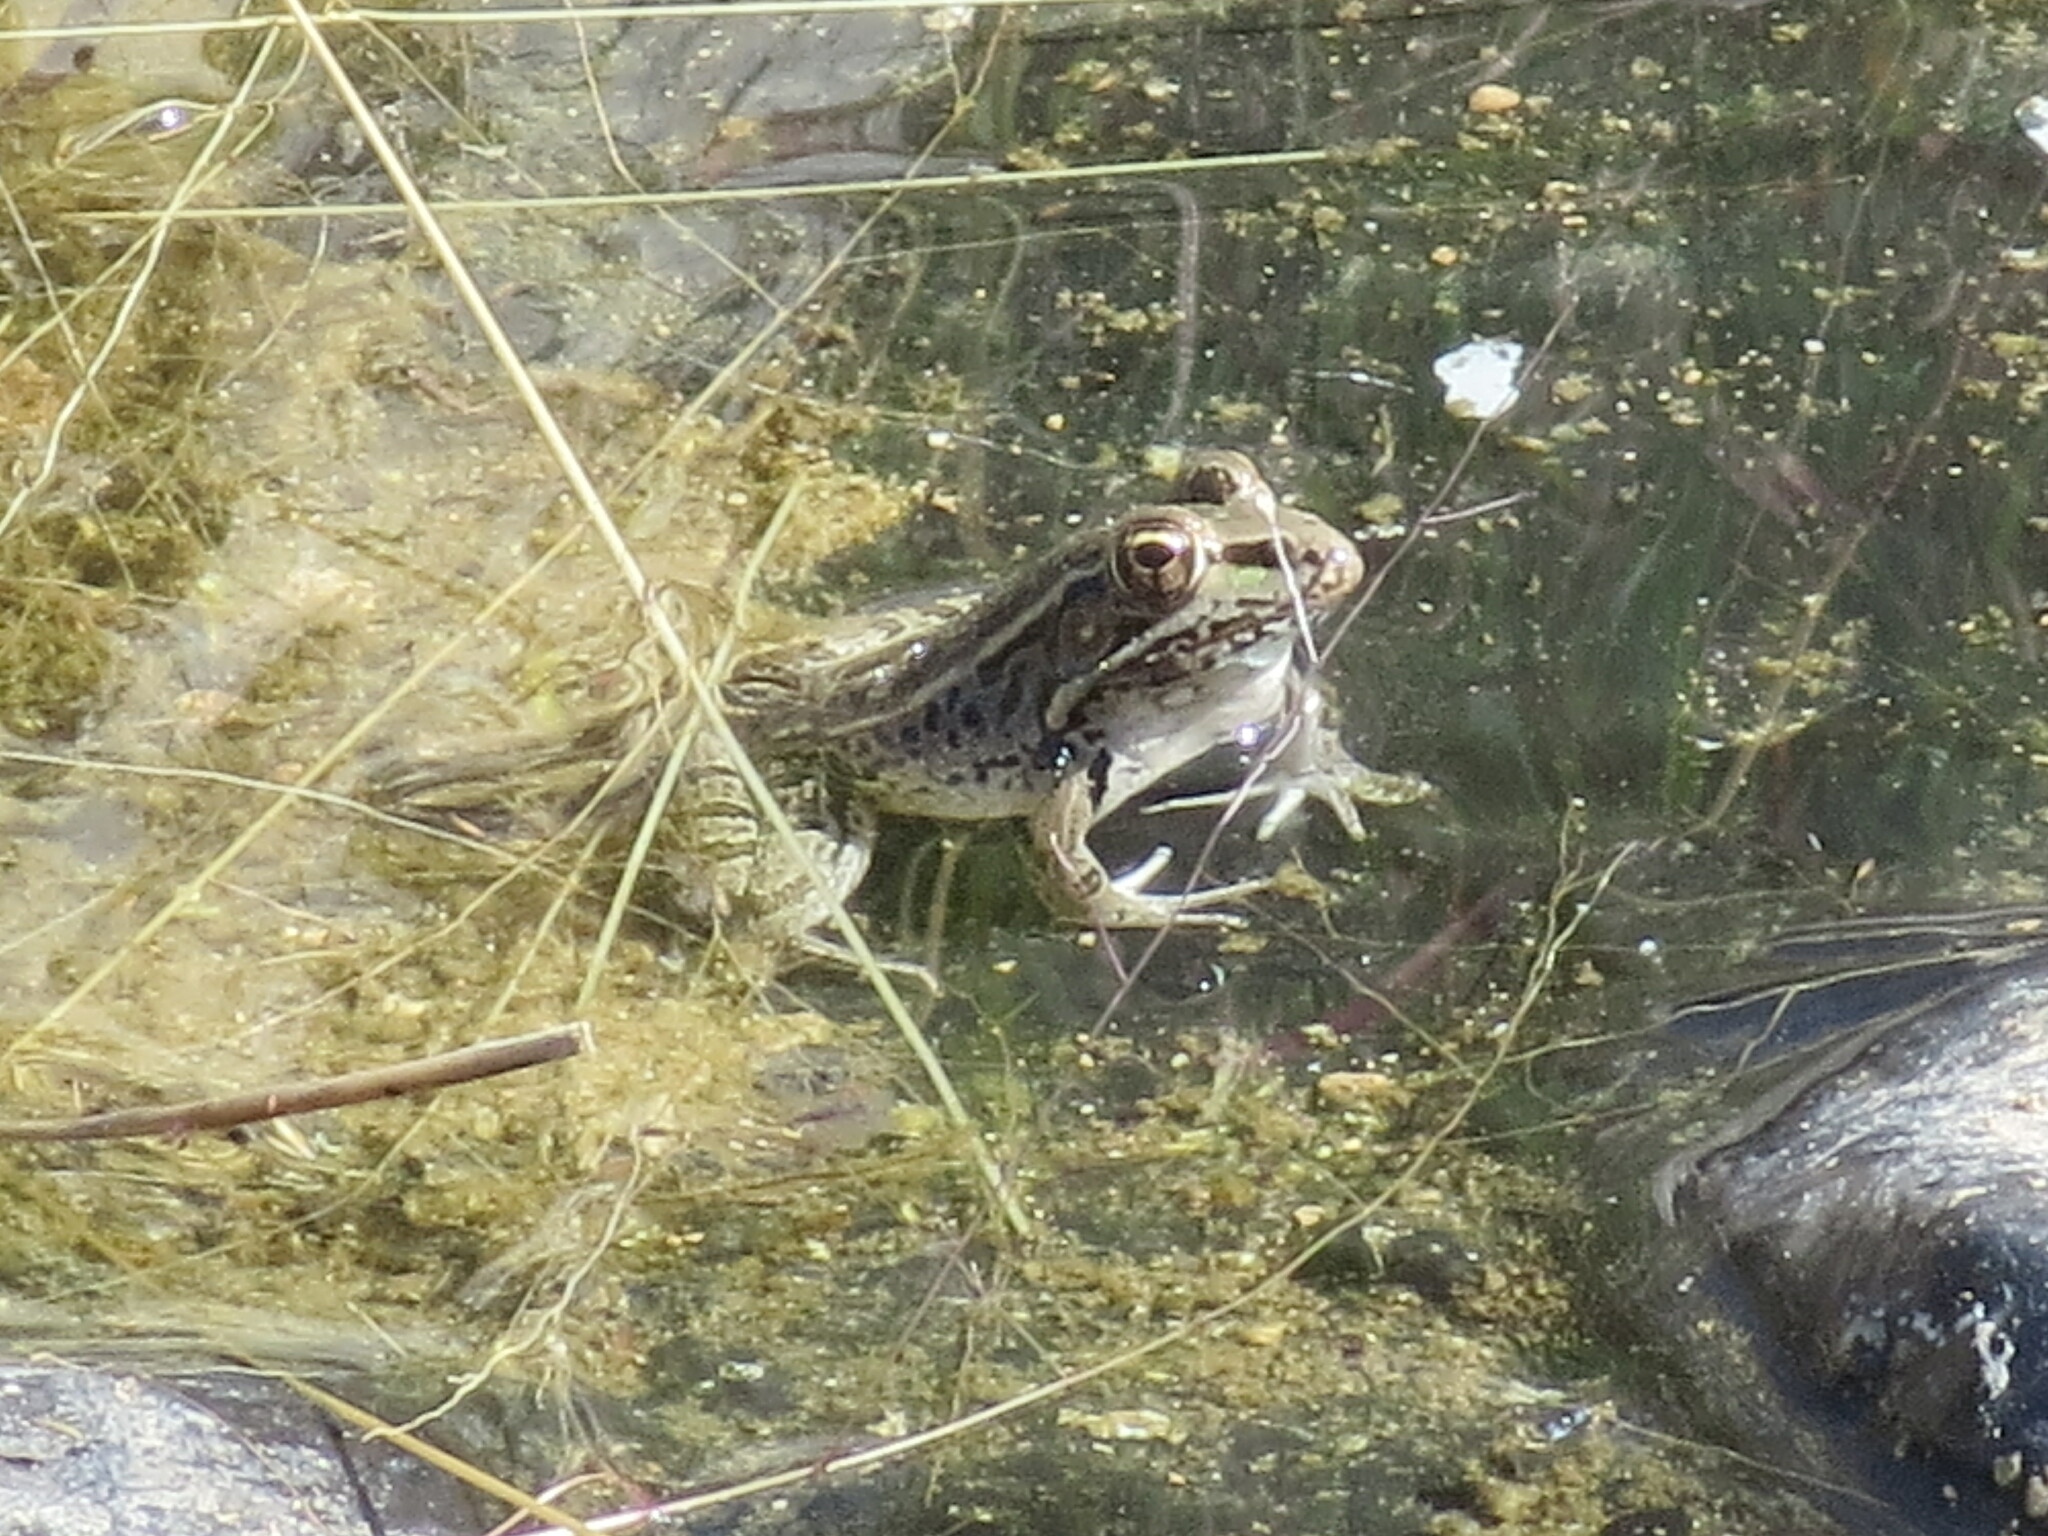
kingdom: Animalia
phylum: Chordata
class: Amphibia
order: Anura
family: Ranidae
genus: Lithobates
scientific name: Lithobates berlandieri
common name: Rio grande leopard frog
